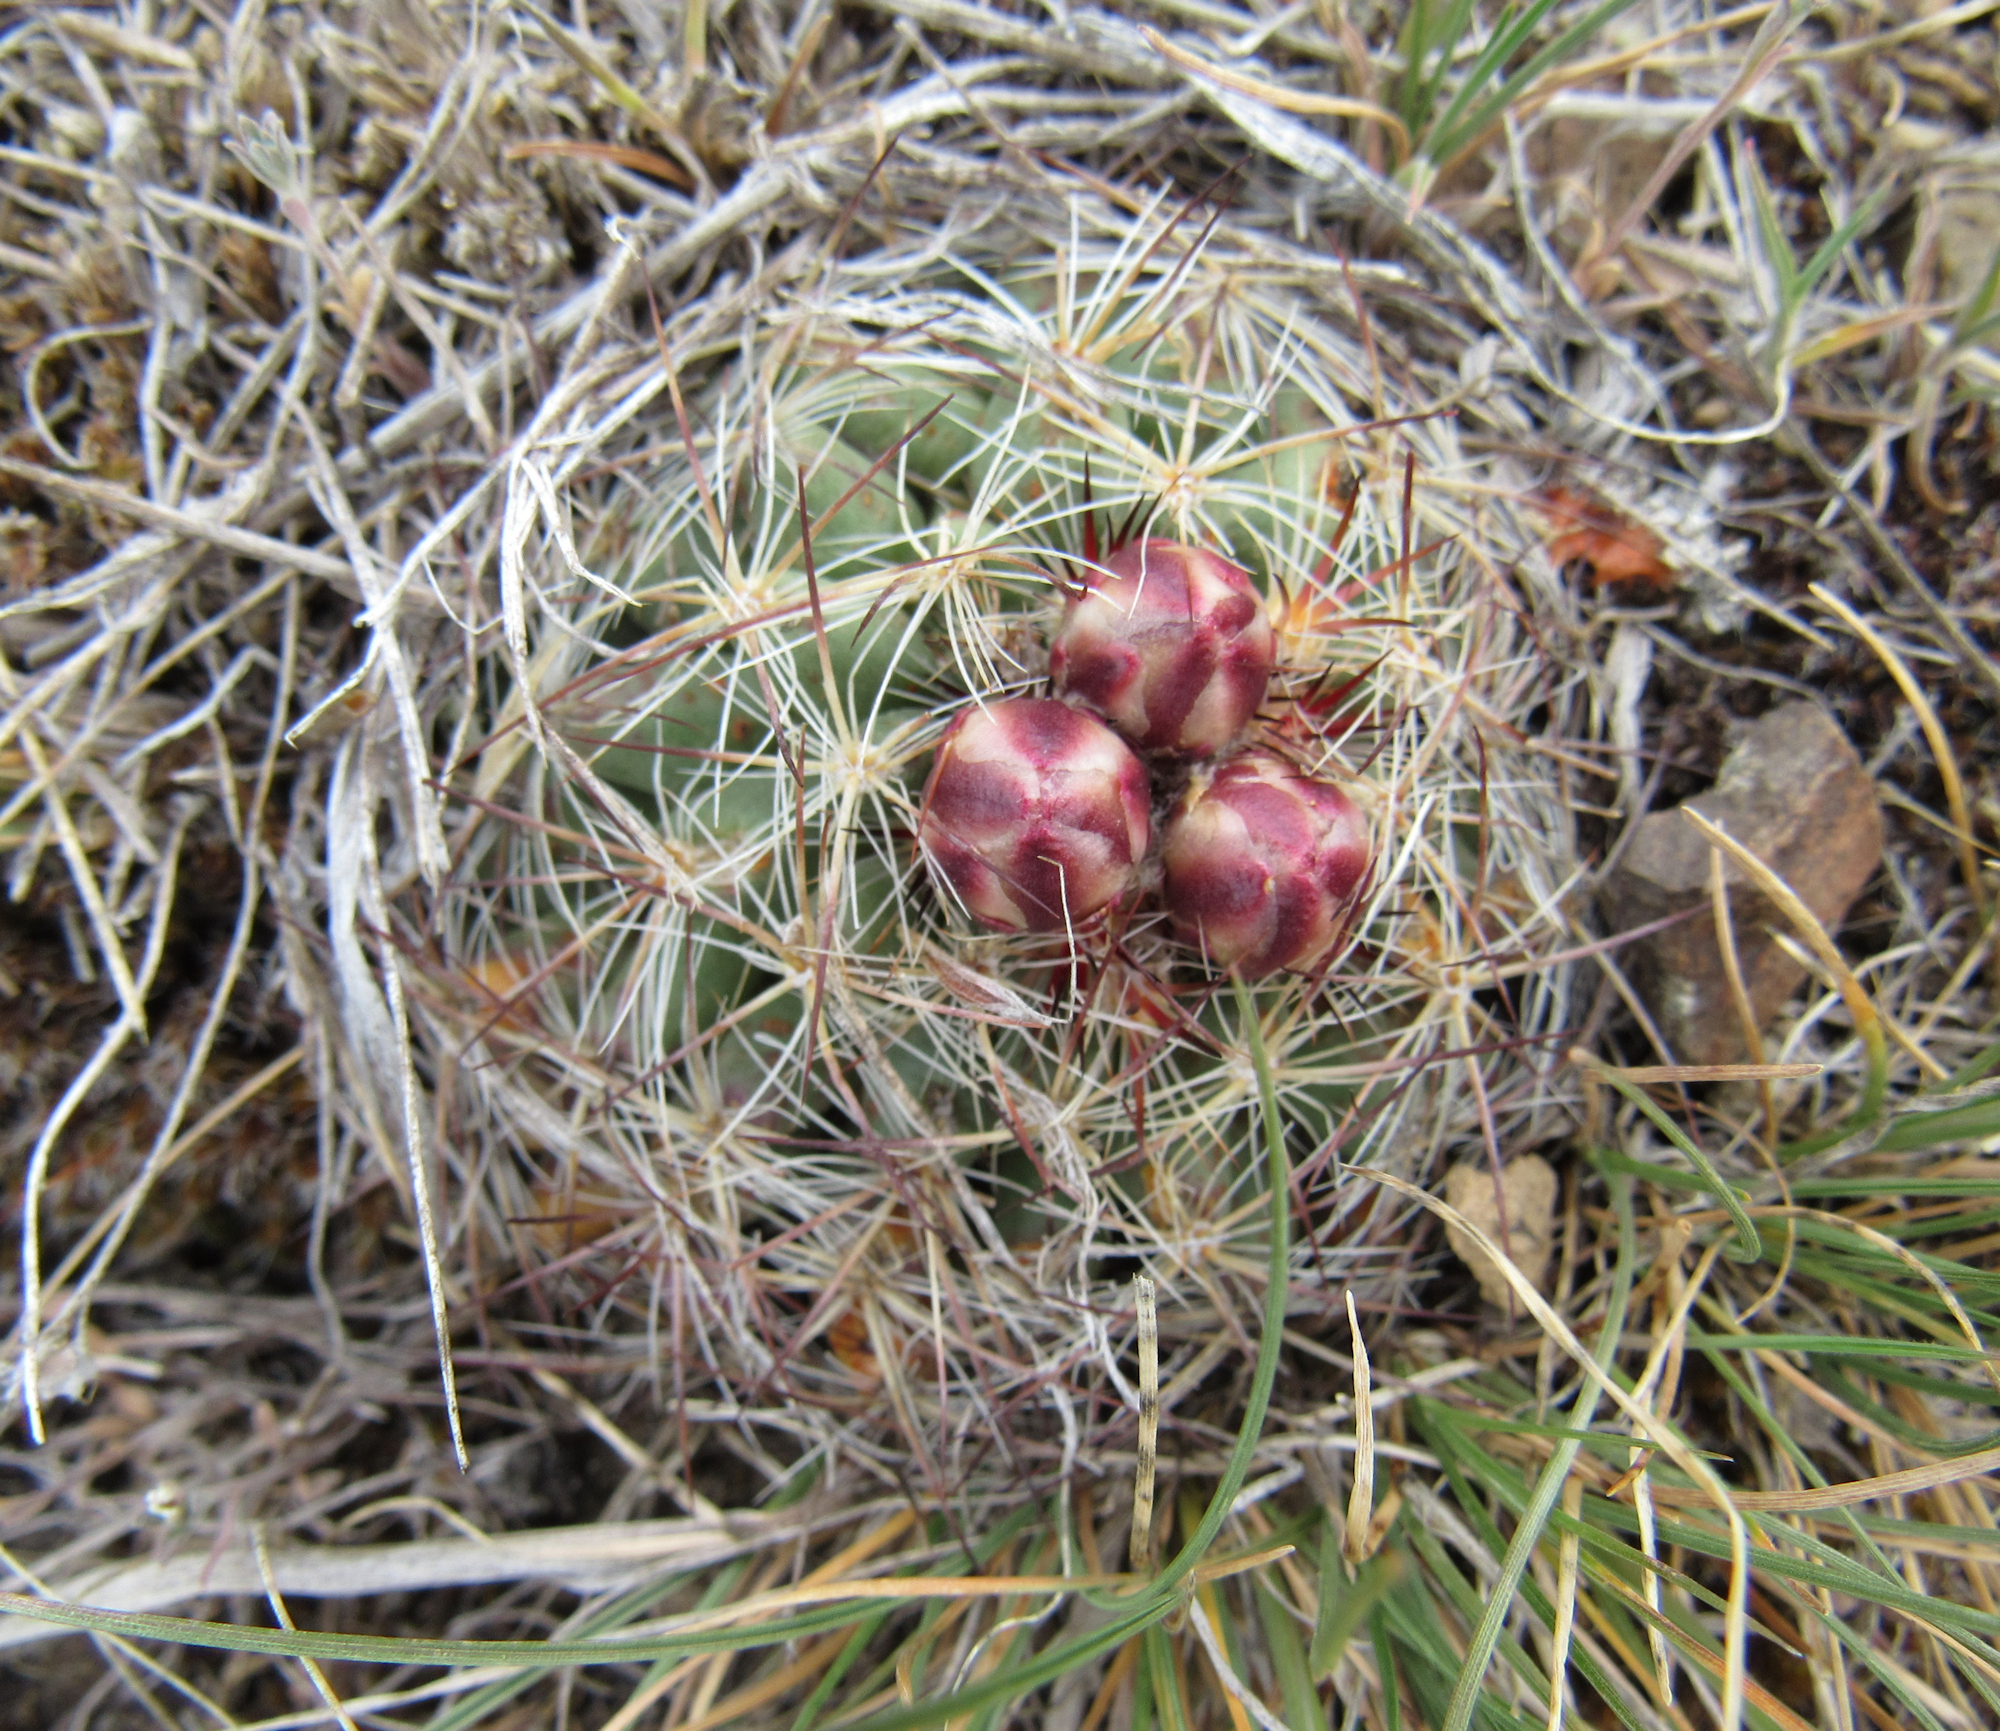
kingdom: Plantae
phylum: Tracheophyta
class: Magnoliopsida
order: Caryophyllales
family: Cactaceae
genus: Pediocactus
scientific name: Pediocactus simpsonii
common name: Simpson's hedgehog cactus
